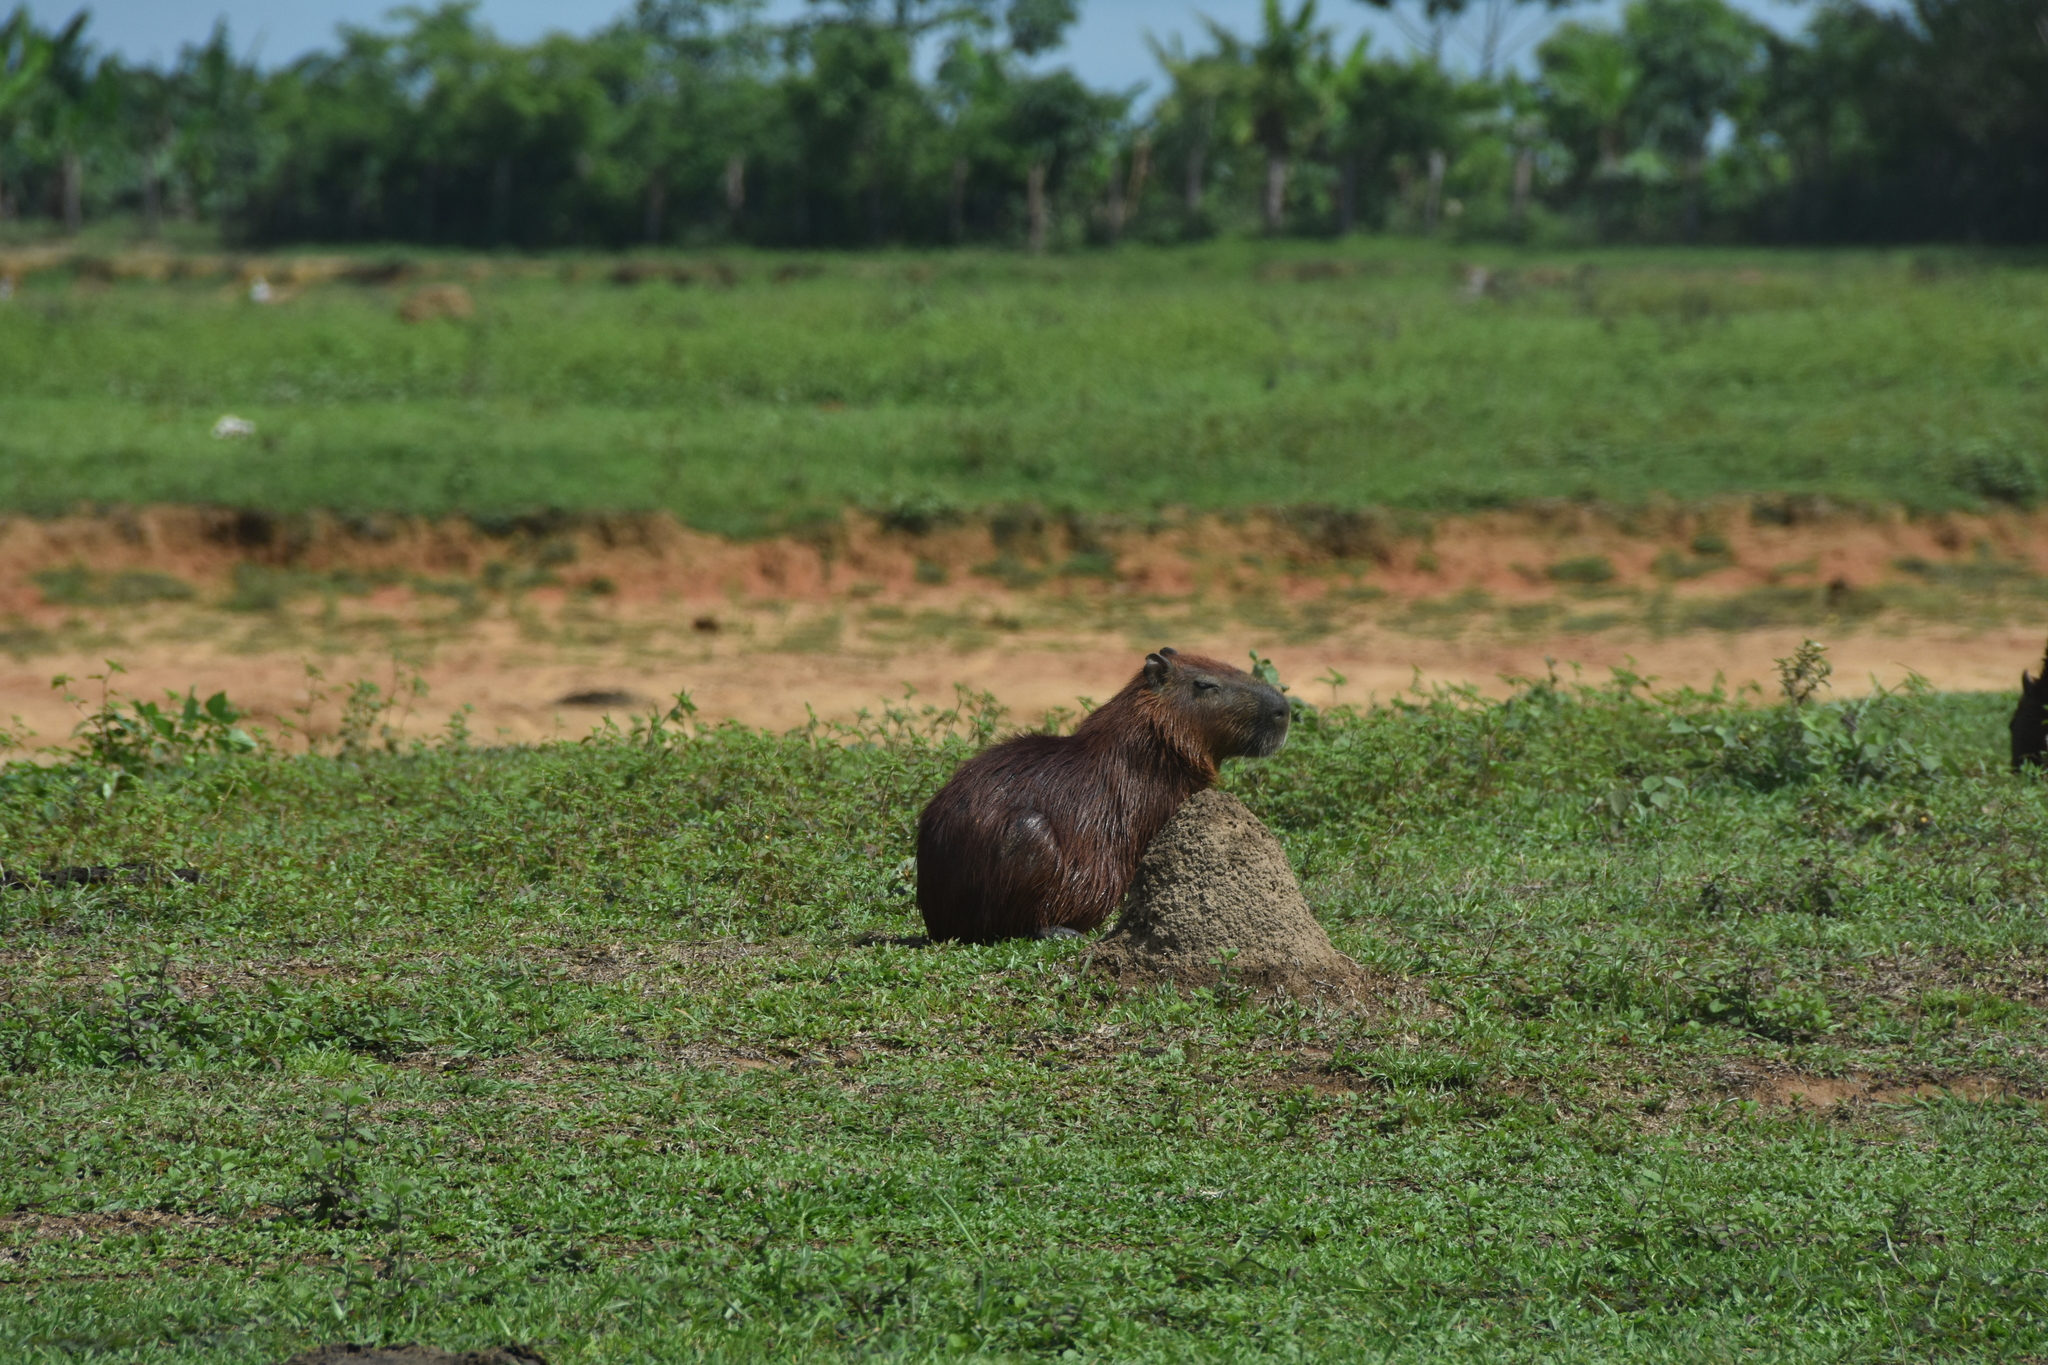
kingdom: Animalia
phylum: Chordata
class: Mammalia
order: Rodentia
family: Caviidae
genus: Hydrochoerus
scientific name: Hydrochoerus hydrochaeris
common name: Capybara
